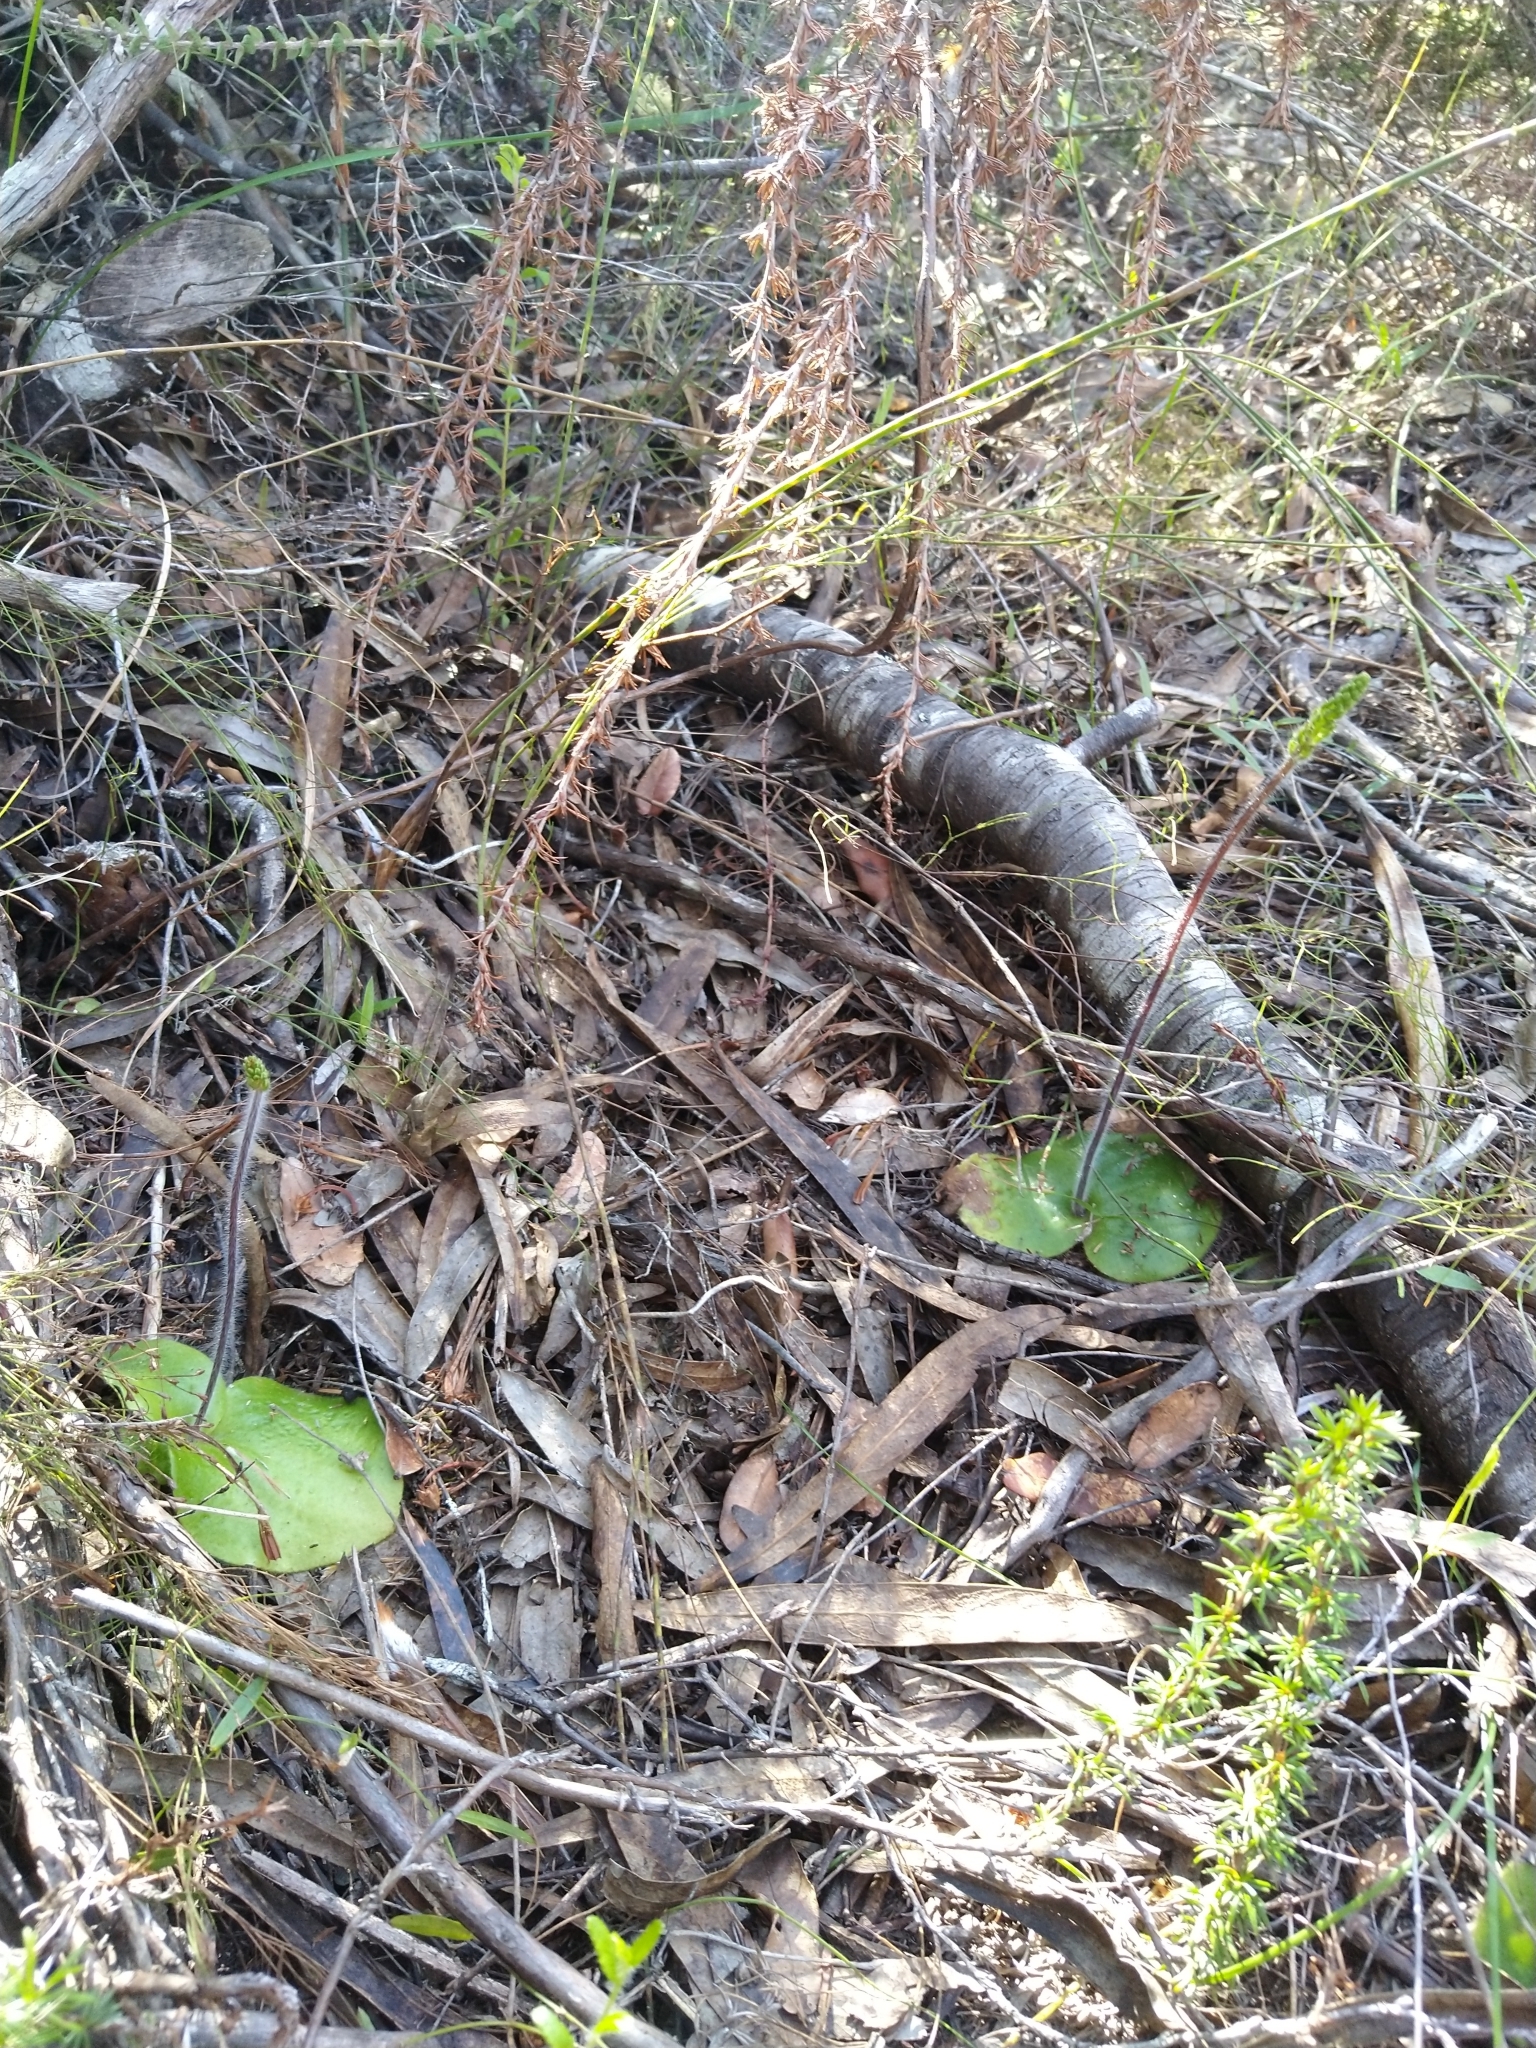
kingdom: Plantae
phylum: Tracheophyta
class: Liliopsida
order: Asparagales
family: Orchidaceae
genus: Holothrix
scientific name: Holothrix villosa
